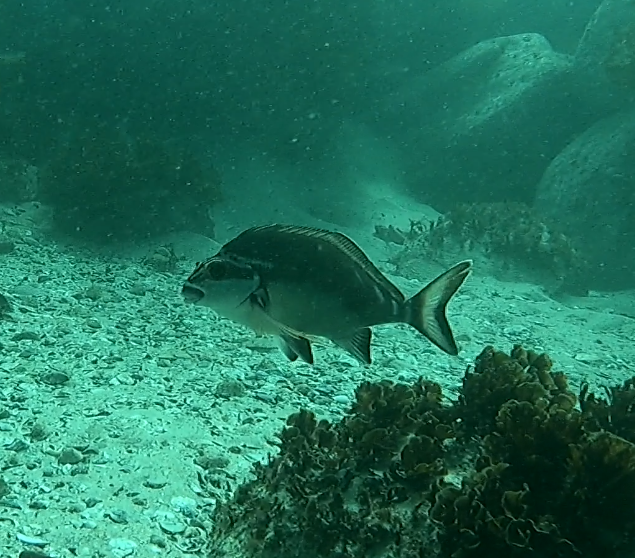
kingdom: Animalia
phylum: Chordata
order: Perciformes
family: Latridae
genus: Morwong
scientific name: Morwong fuscus
